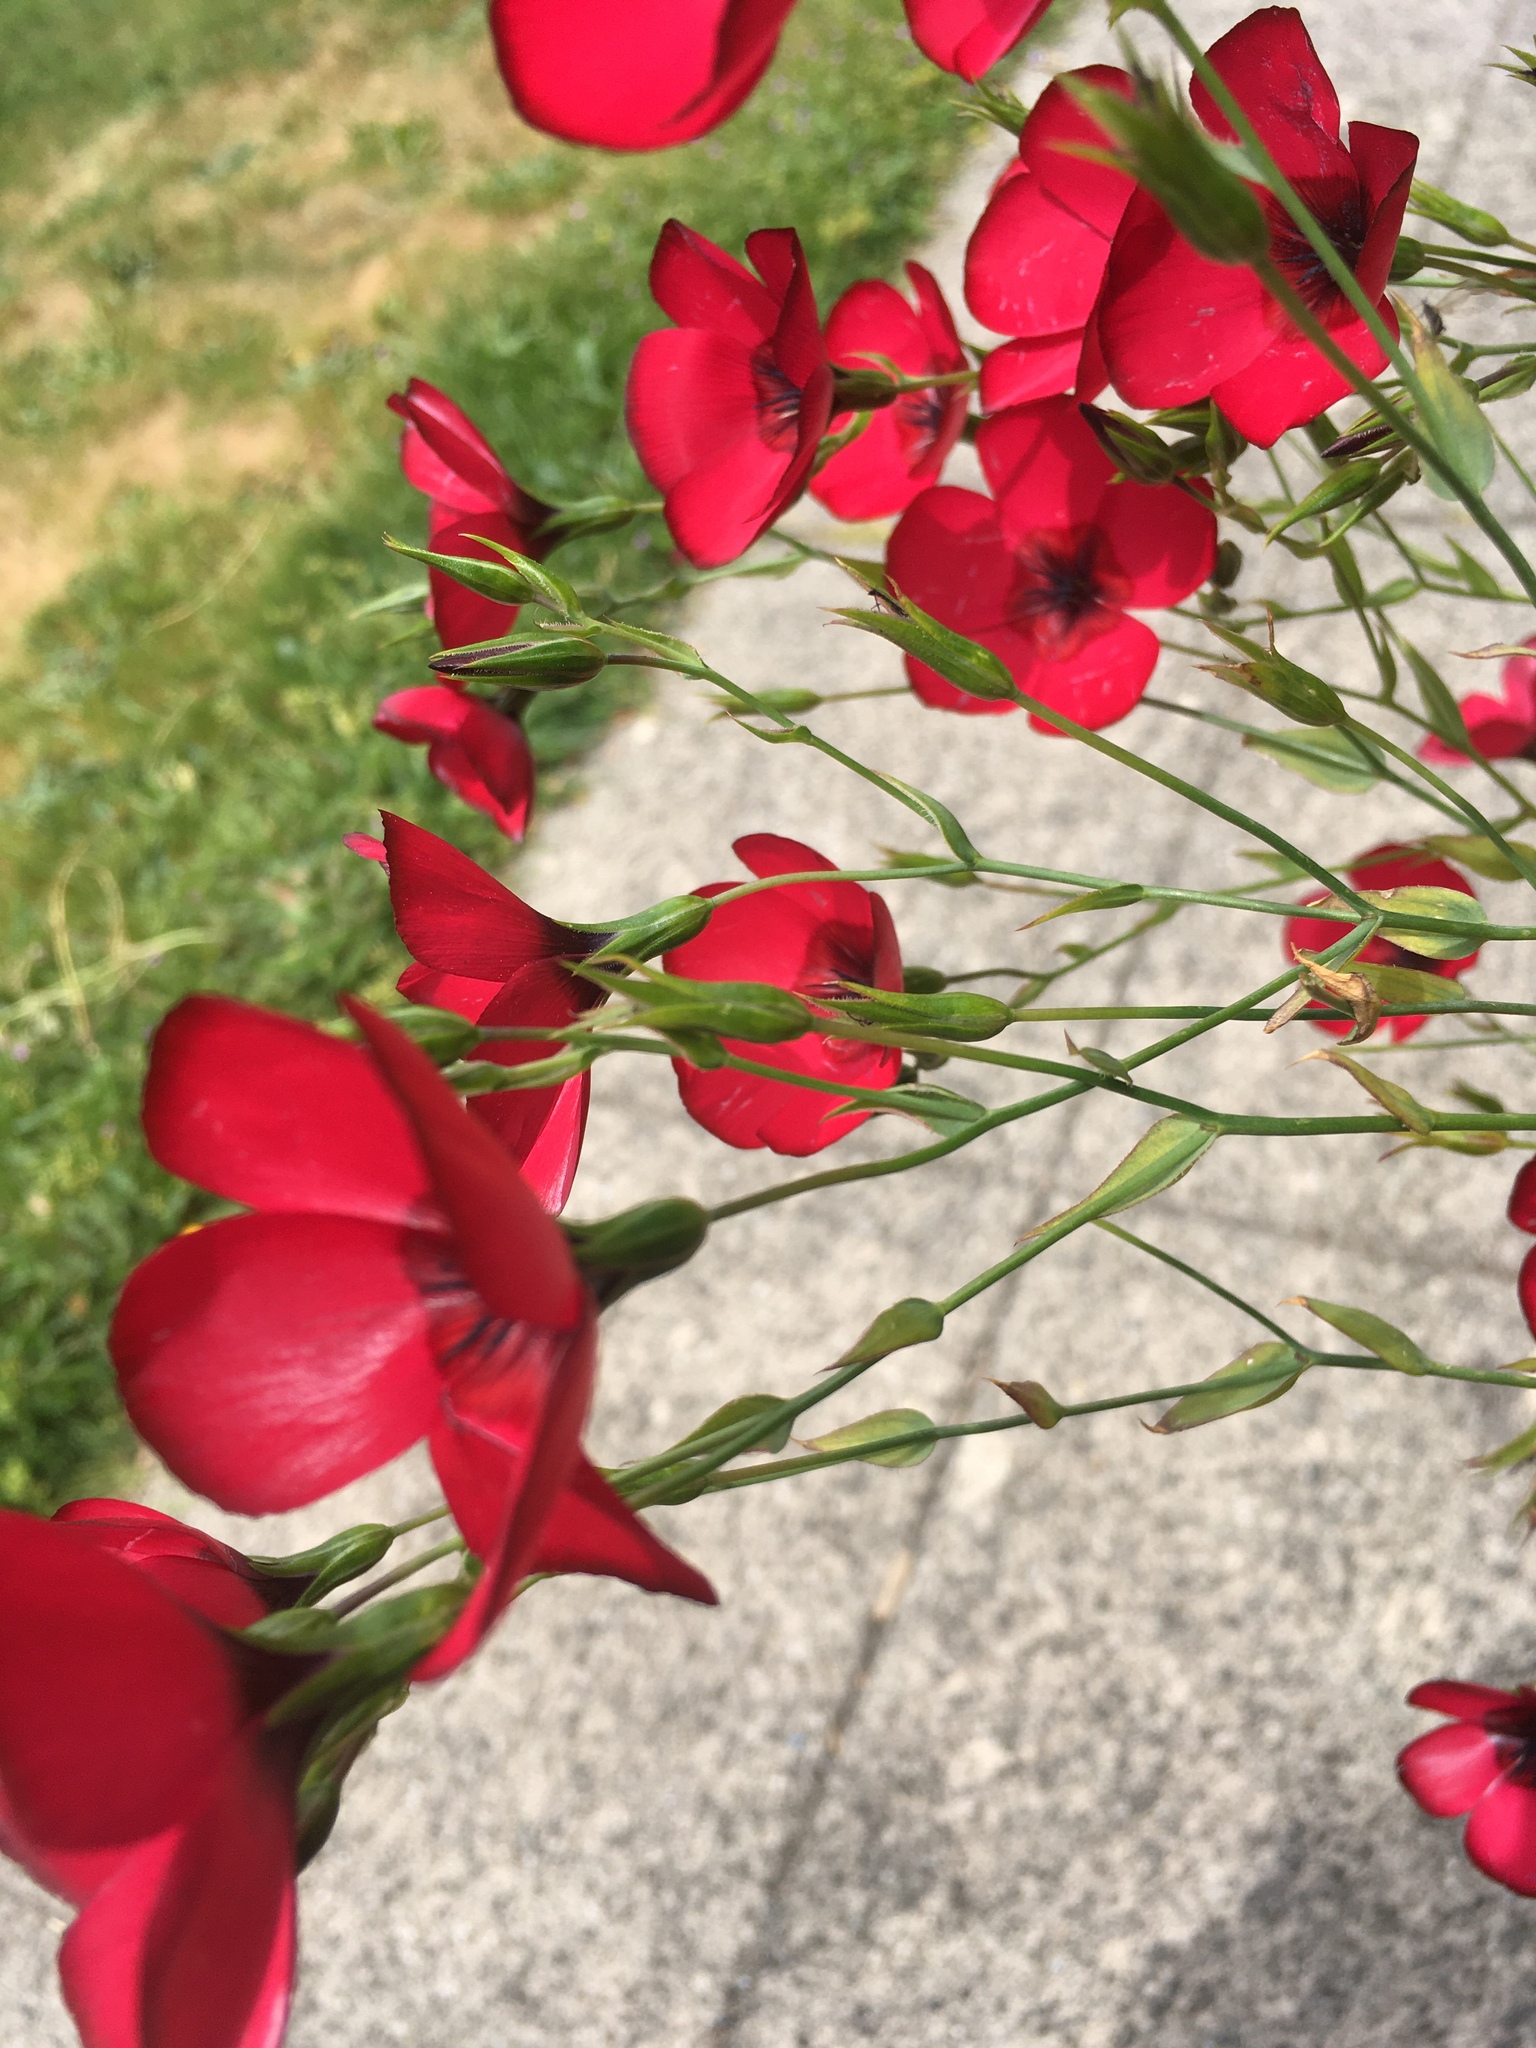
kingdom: Plantae
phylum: Tracheophyta
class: Magnoliopsida
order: Malpighiales
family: Linaceae
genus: Linum
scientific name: Linum grandiflorum
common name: Crimson flax
